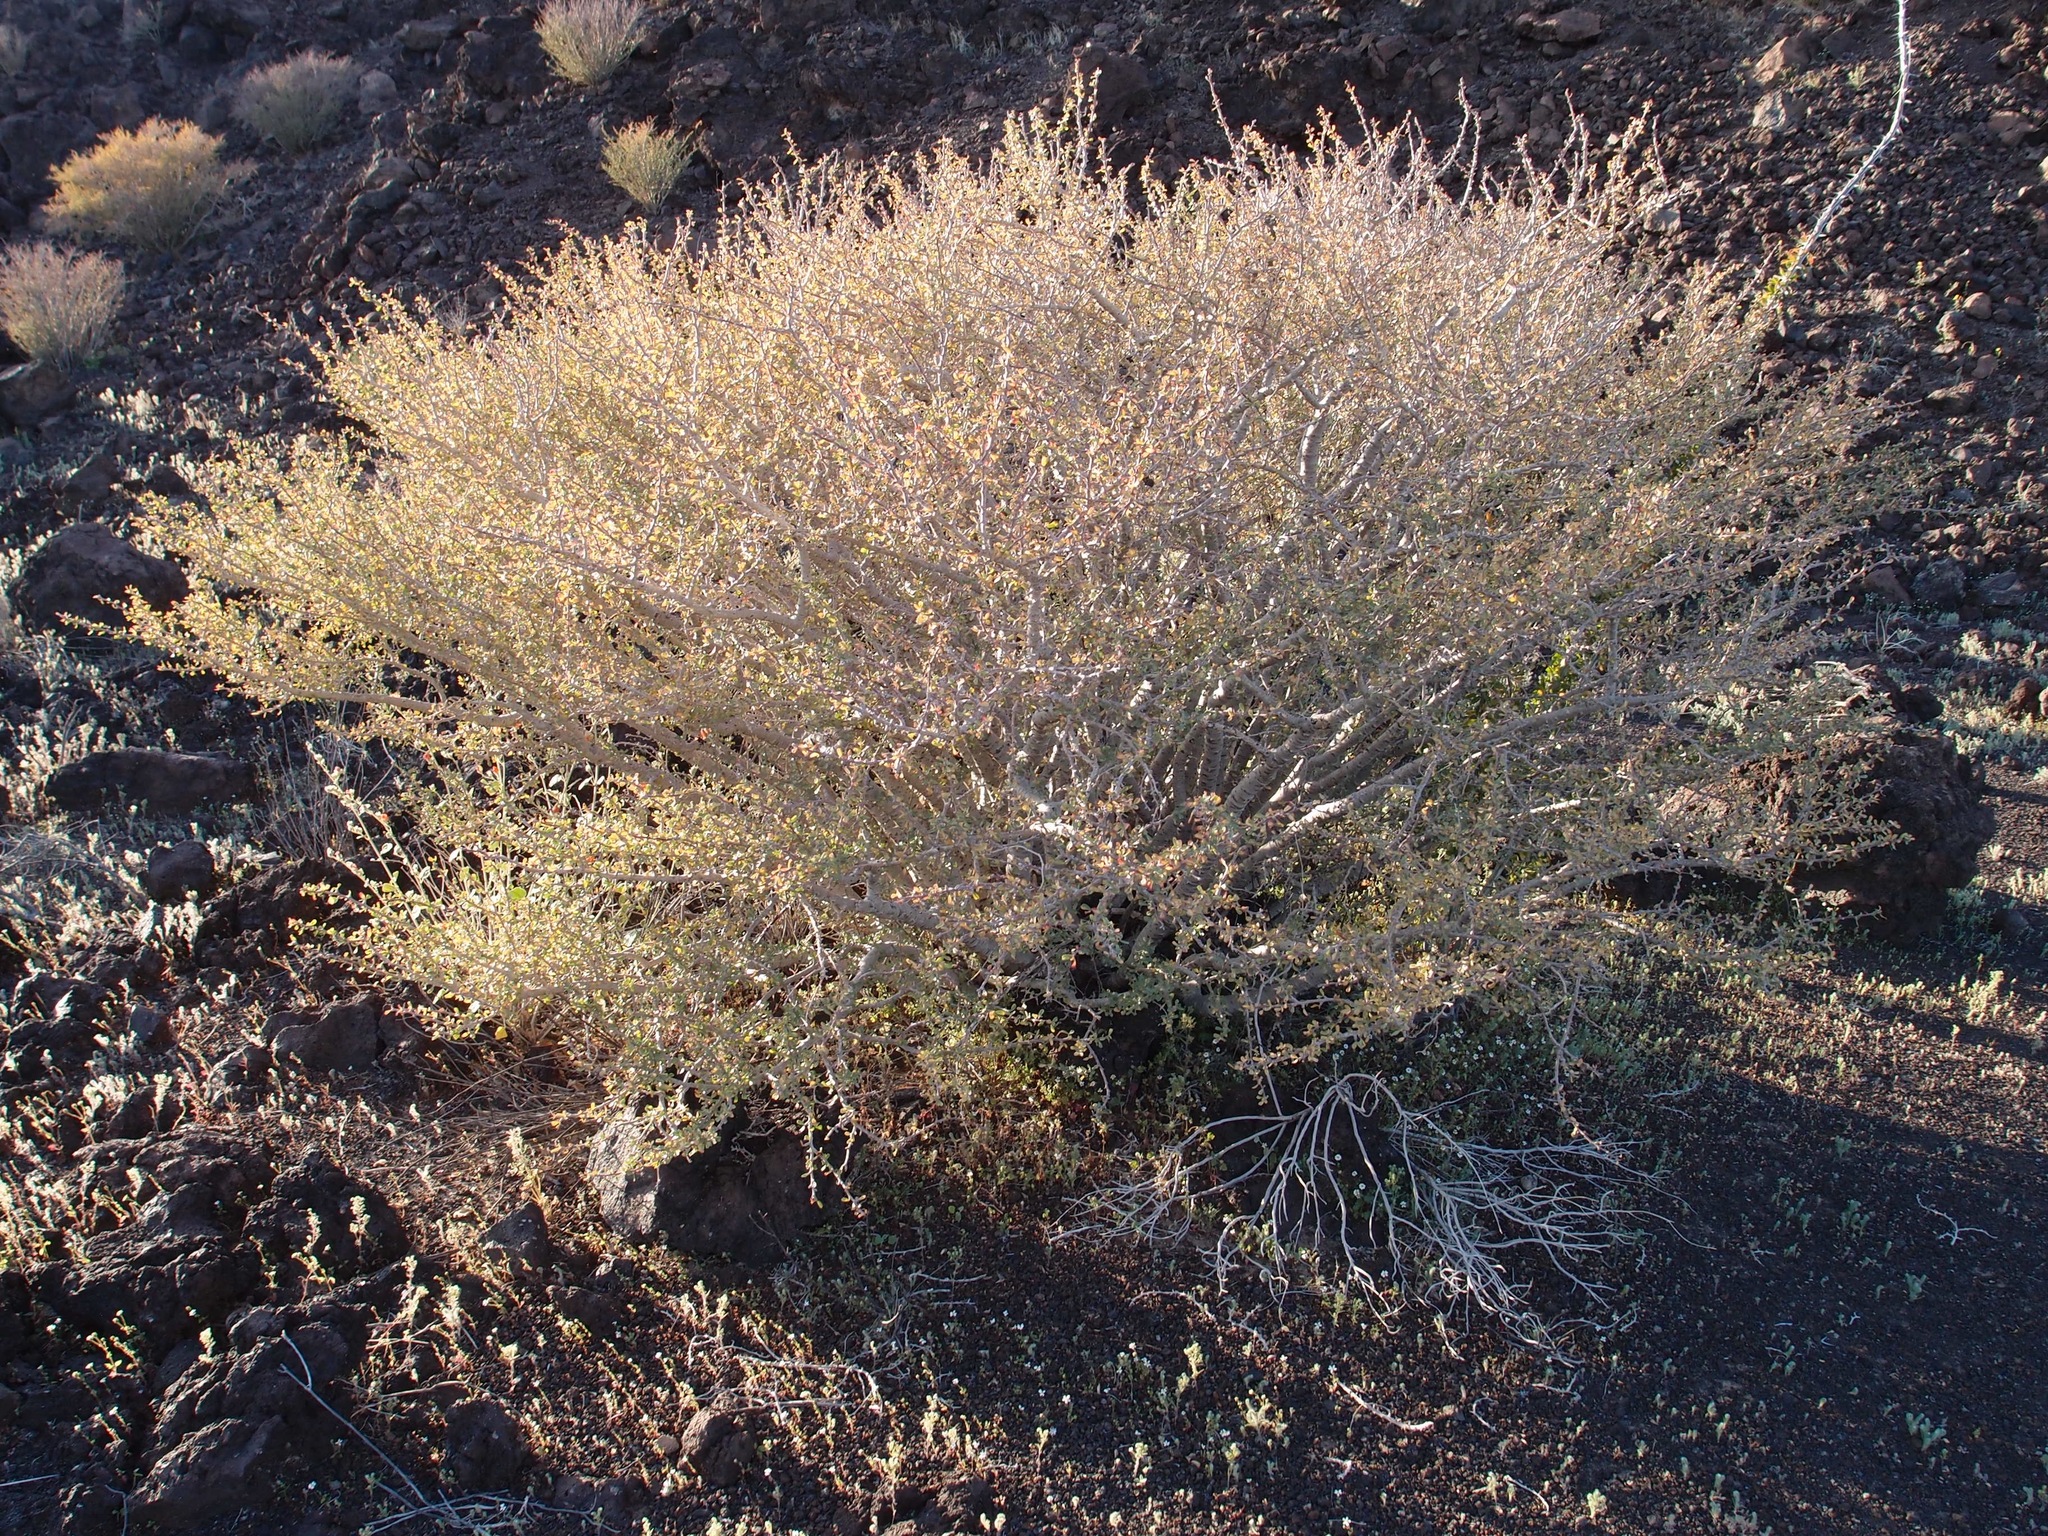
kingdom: Plantae
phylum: Tracheophyta
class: Magnoliopsida
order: Malpighiales
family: Euphorbiaceae
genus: Jatropha
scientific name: Jatropha cuneata
